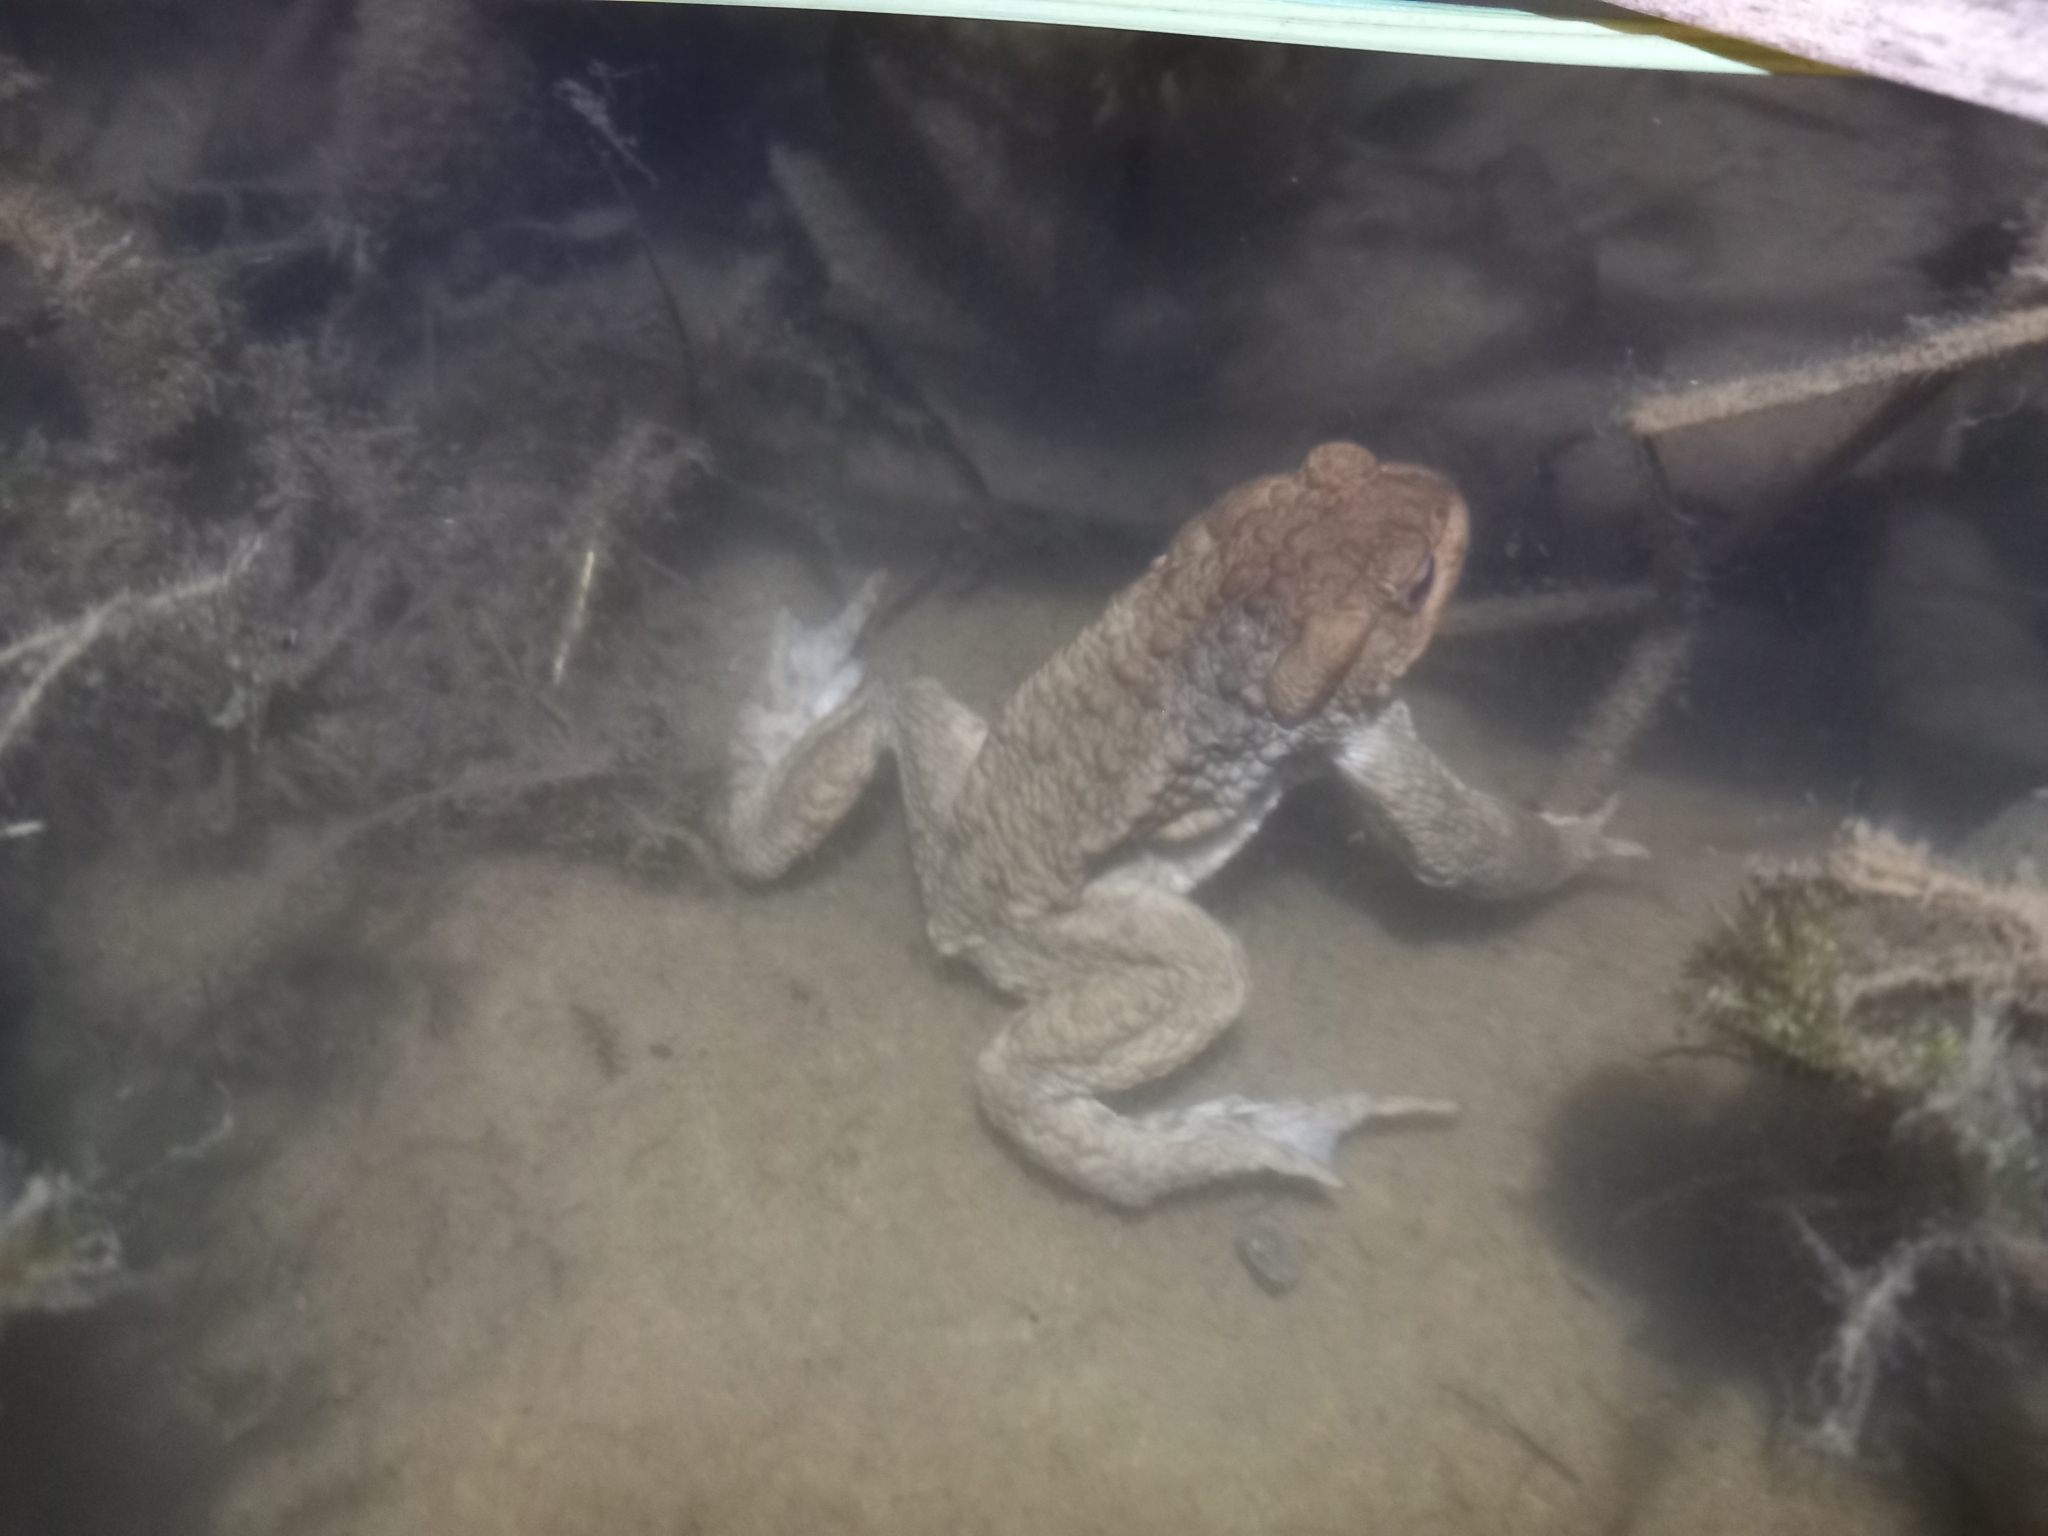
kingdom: Animalia
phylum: Chordata
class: Amphibia
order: Anura
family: Bufonidae
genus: Bufo
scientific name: Bufo bufo
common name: Common toad
